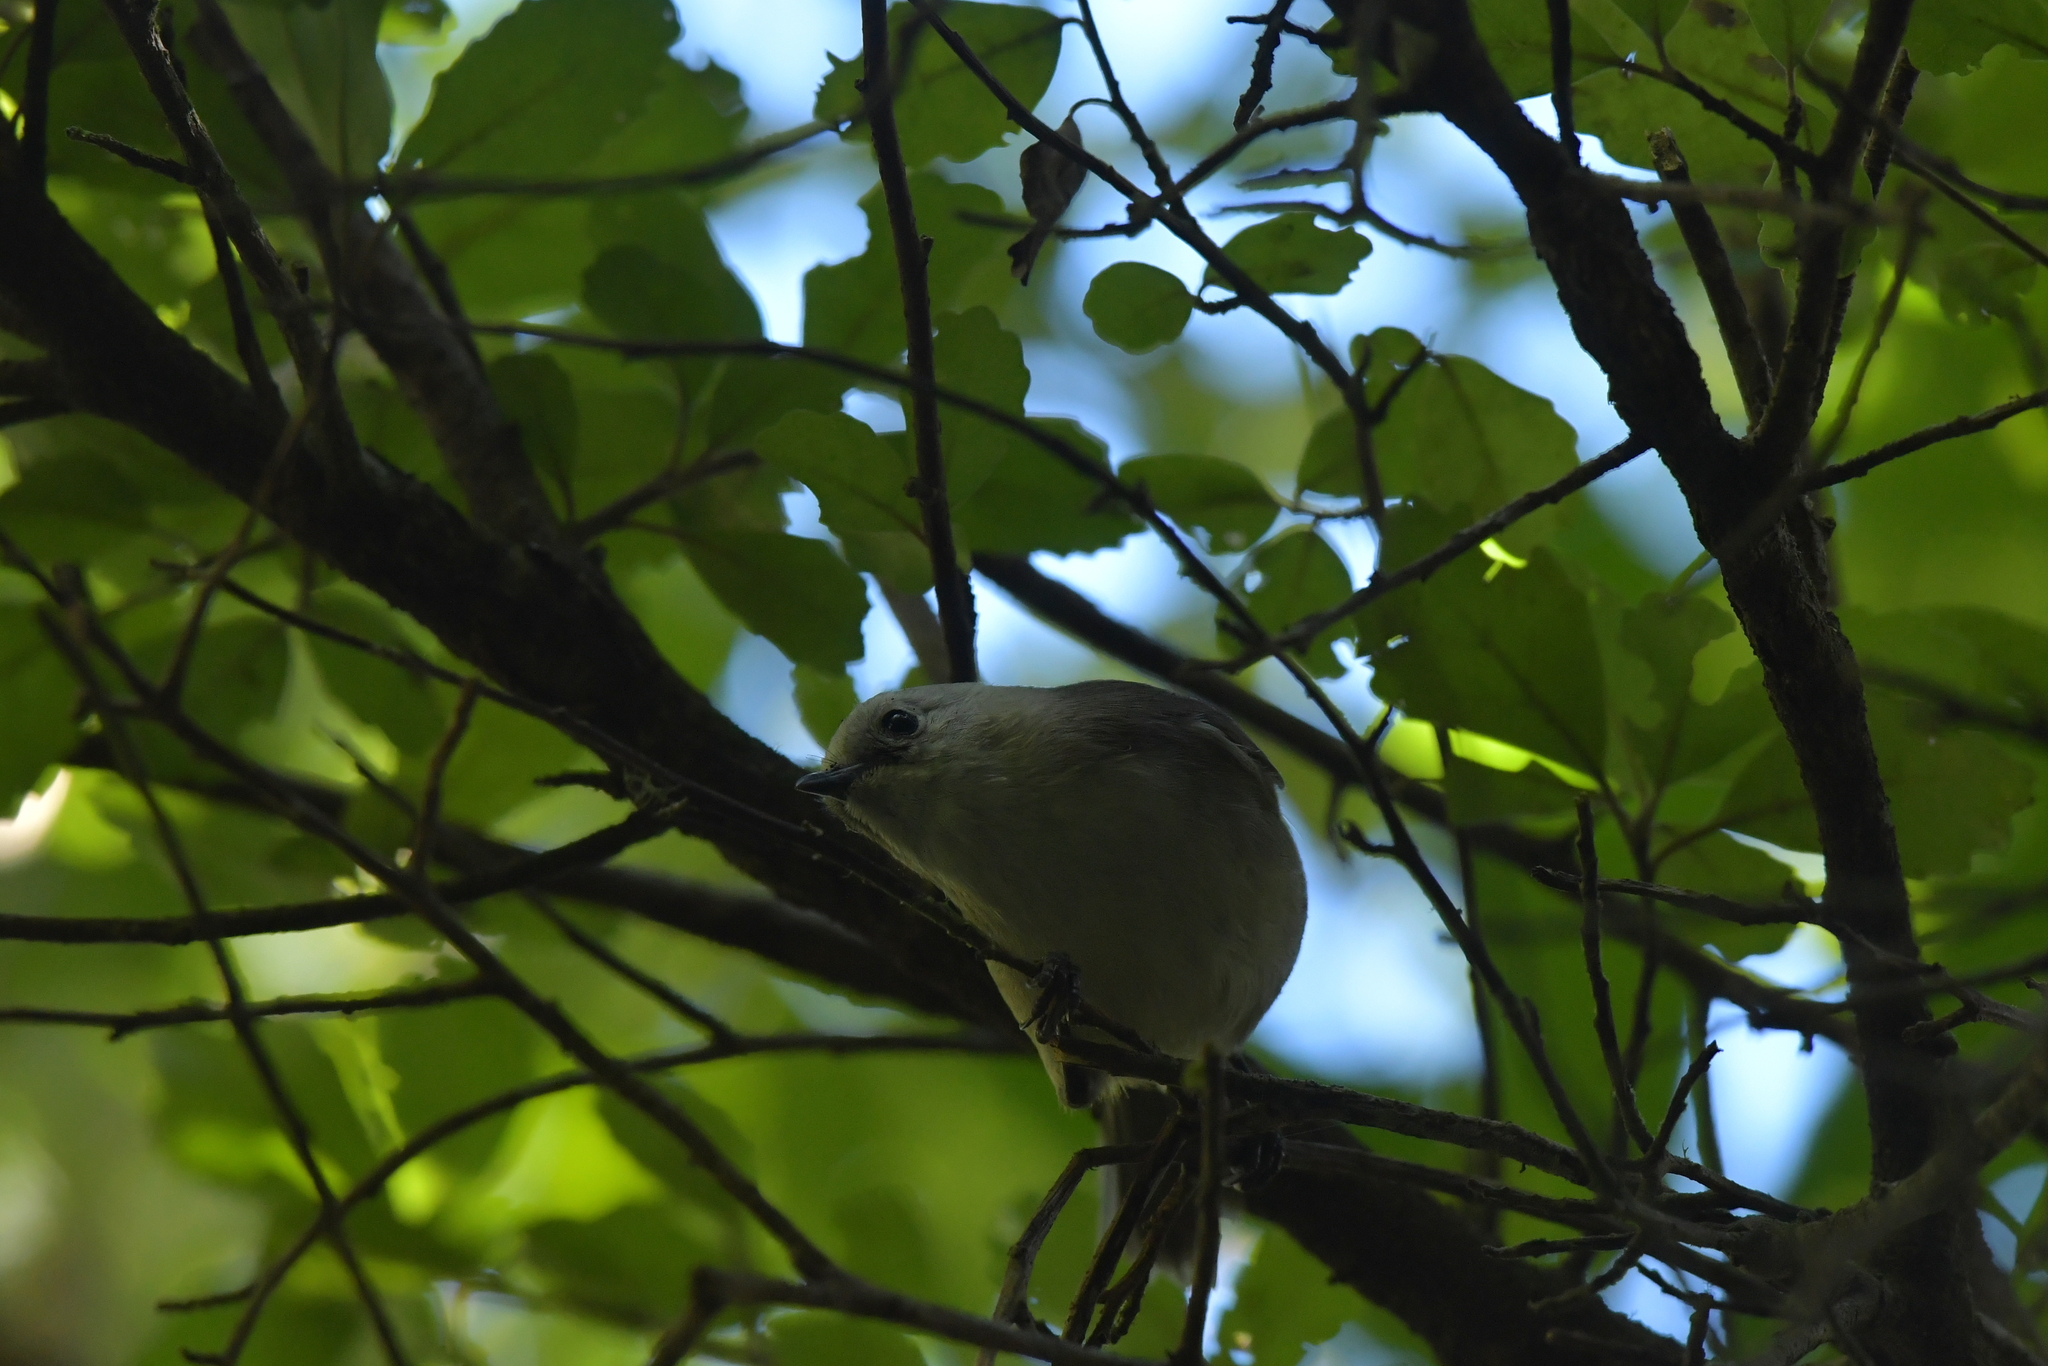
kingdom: Animalia
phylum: Chordata
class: Aves
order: Passeriformes
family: Acanthizidae
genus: Mohoua
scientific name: Mohoua albicilla
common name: Whitehead
